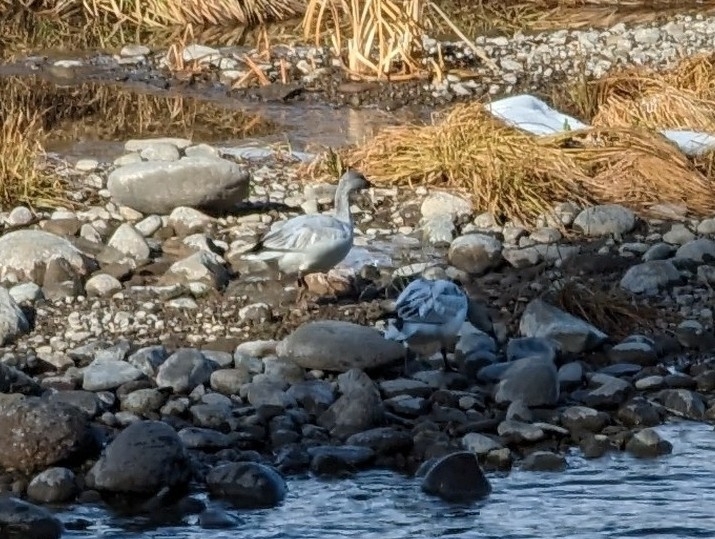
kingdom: Animalia
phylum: Chordata
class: Aves
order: Anseriformes
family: Anatidae
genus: Anser
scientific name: Anser caerulescens
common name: Snow goose
